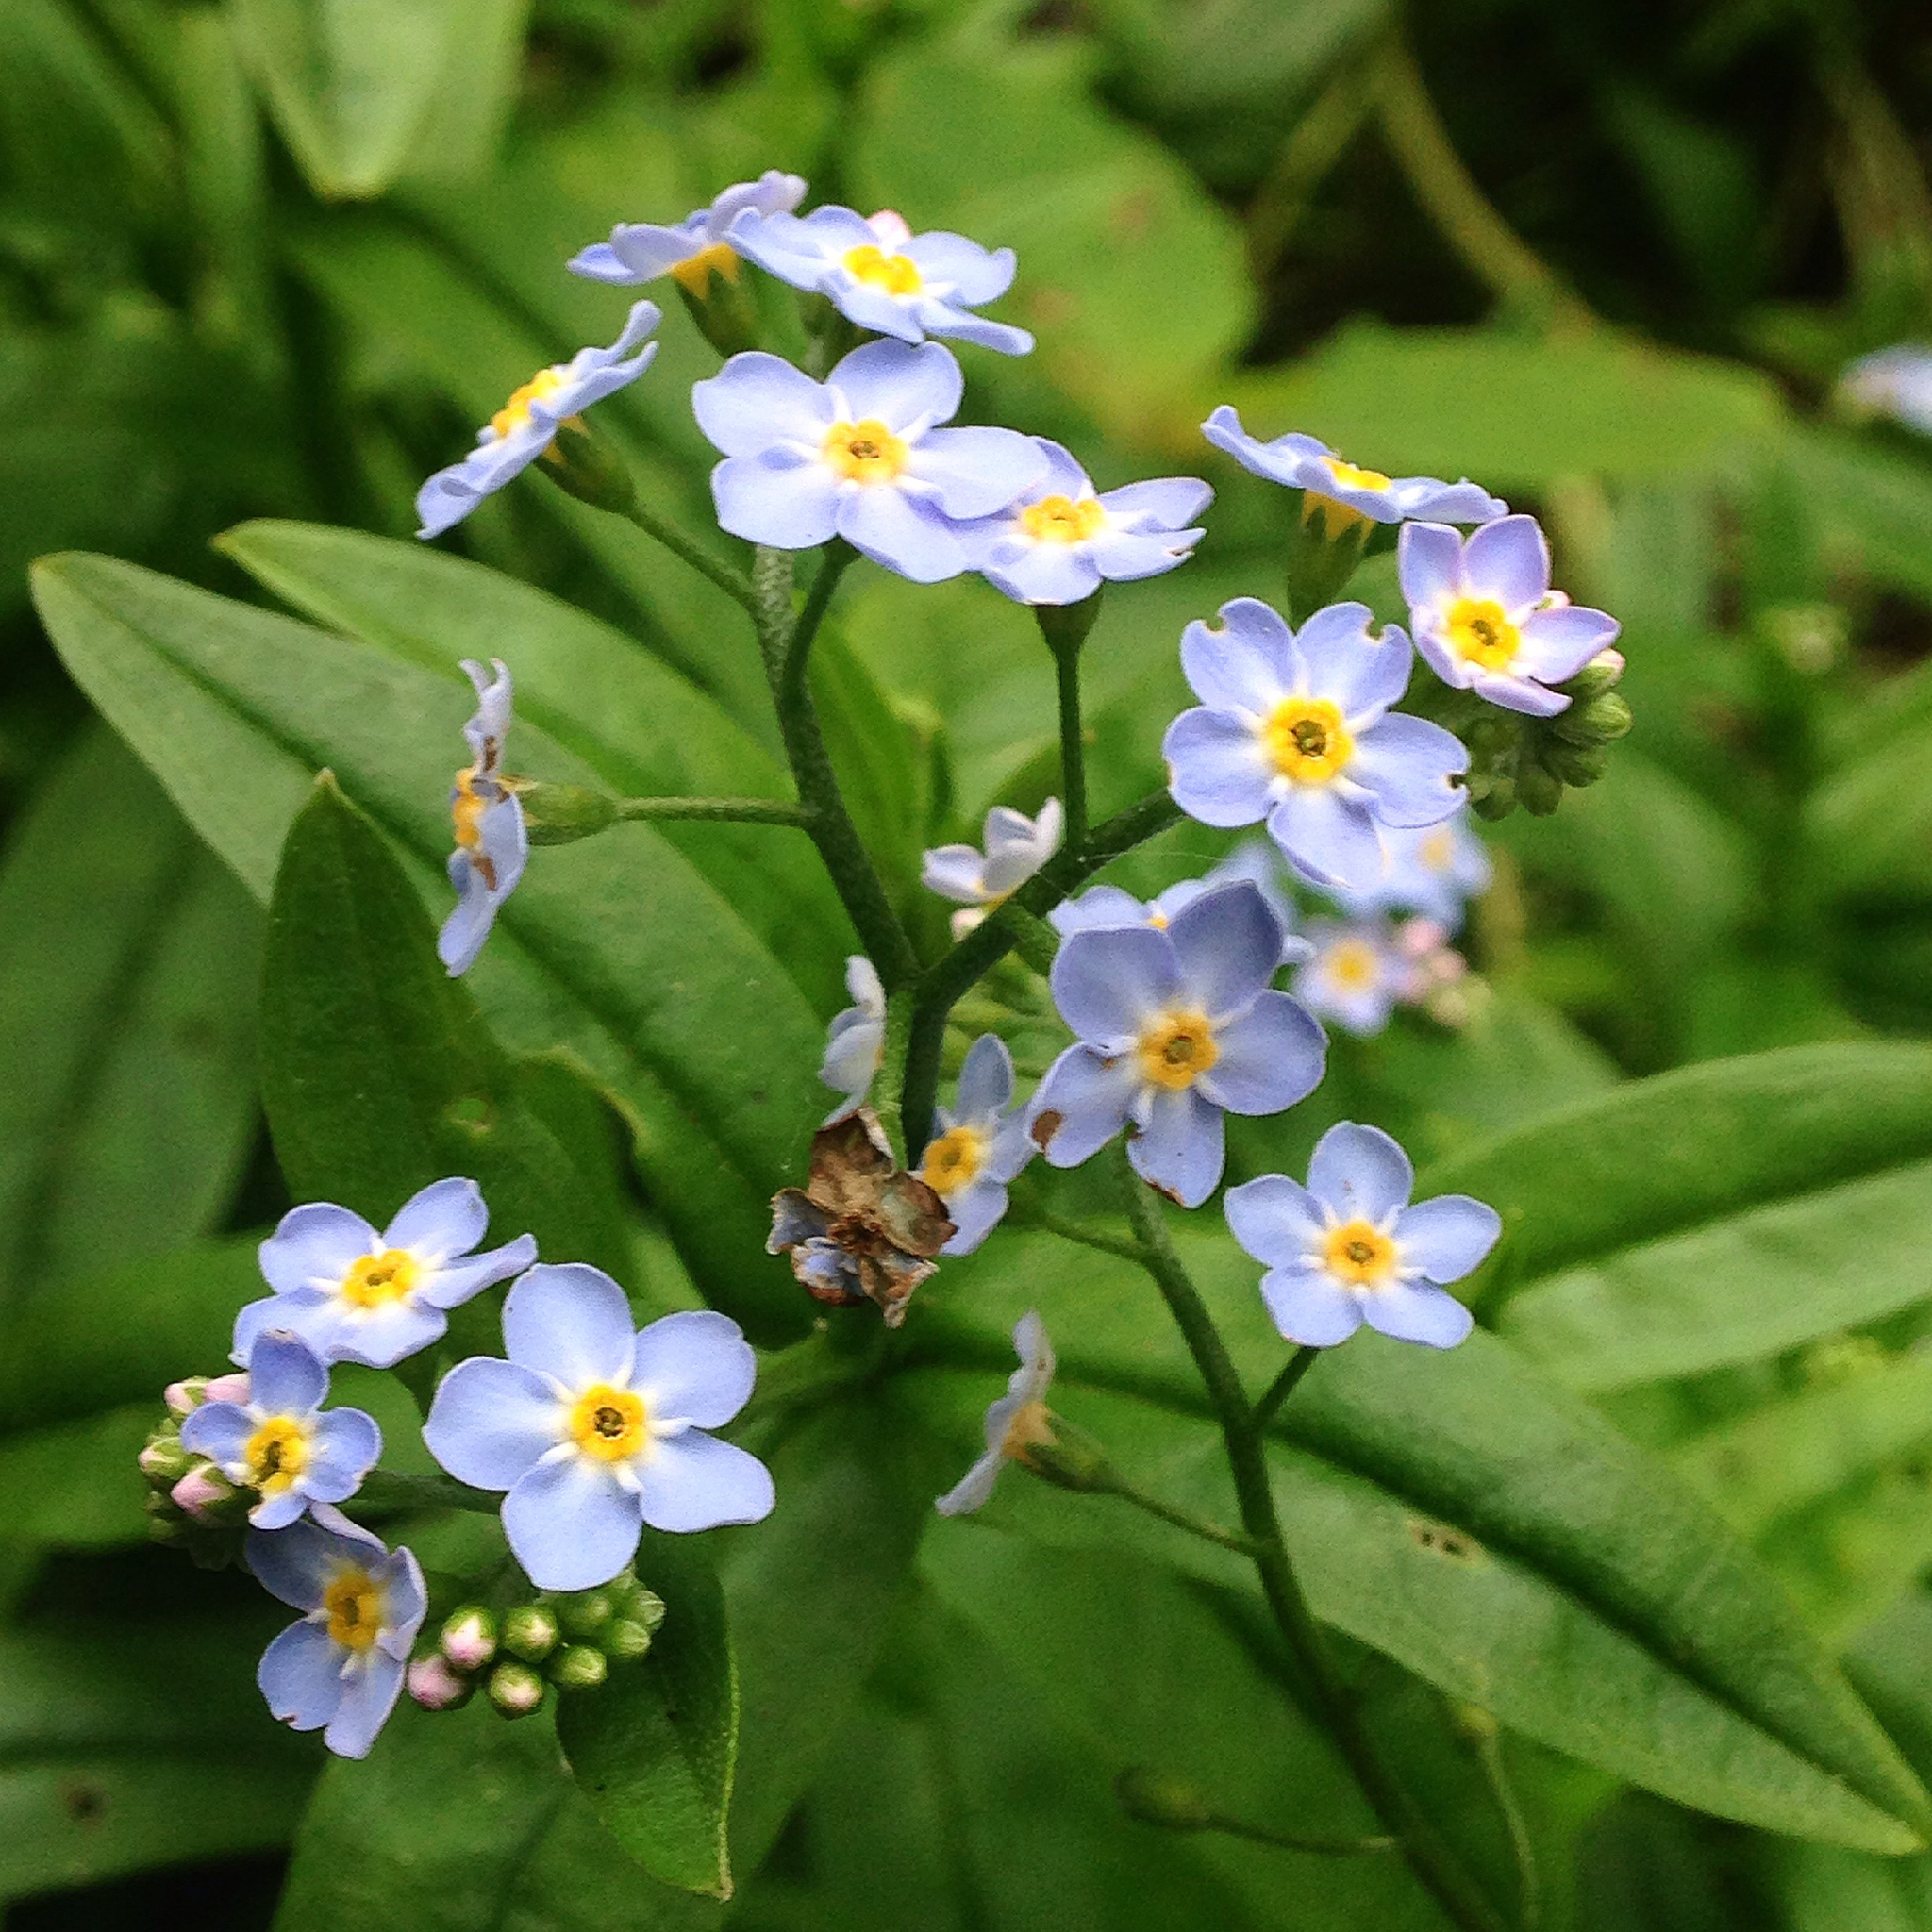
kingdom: Plantae
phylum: Tracheophyta
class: Magnoliopsida
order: Boraginales
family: Boraginaceae
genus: Myosotis
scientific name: Myosotis scorpioides
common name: Water forget-me-not
